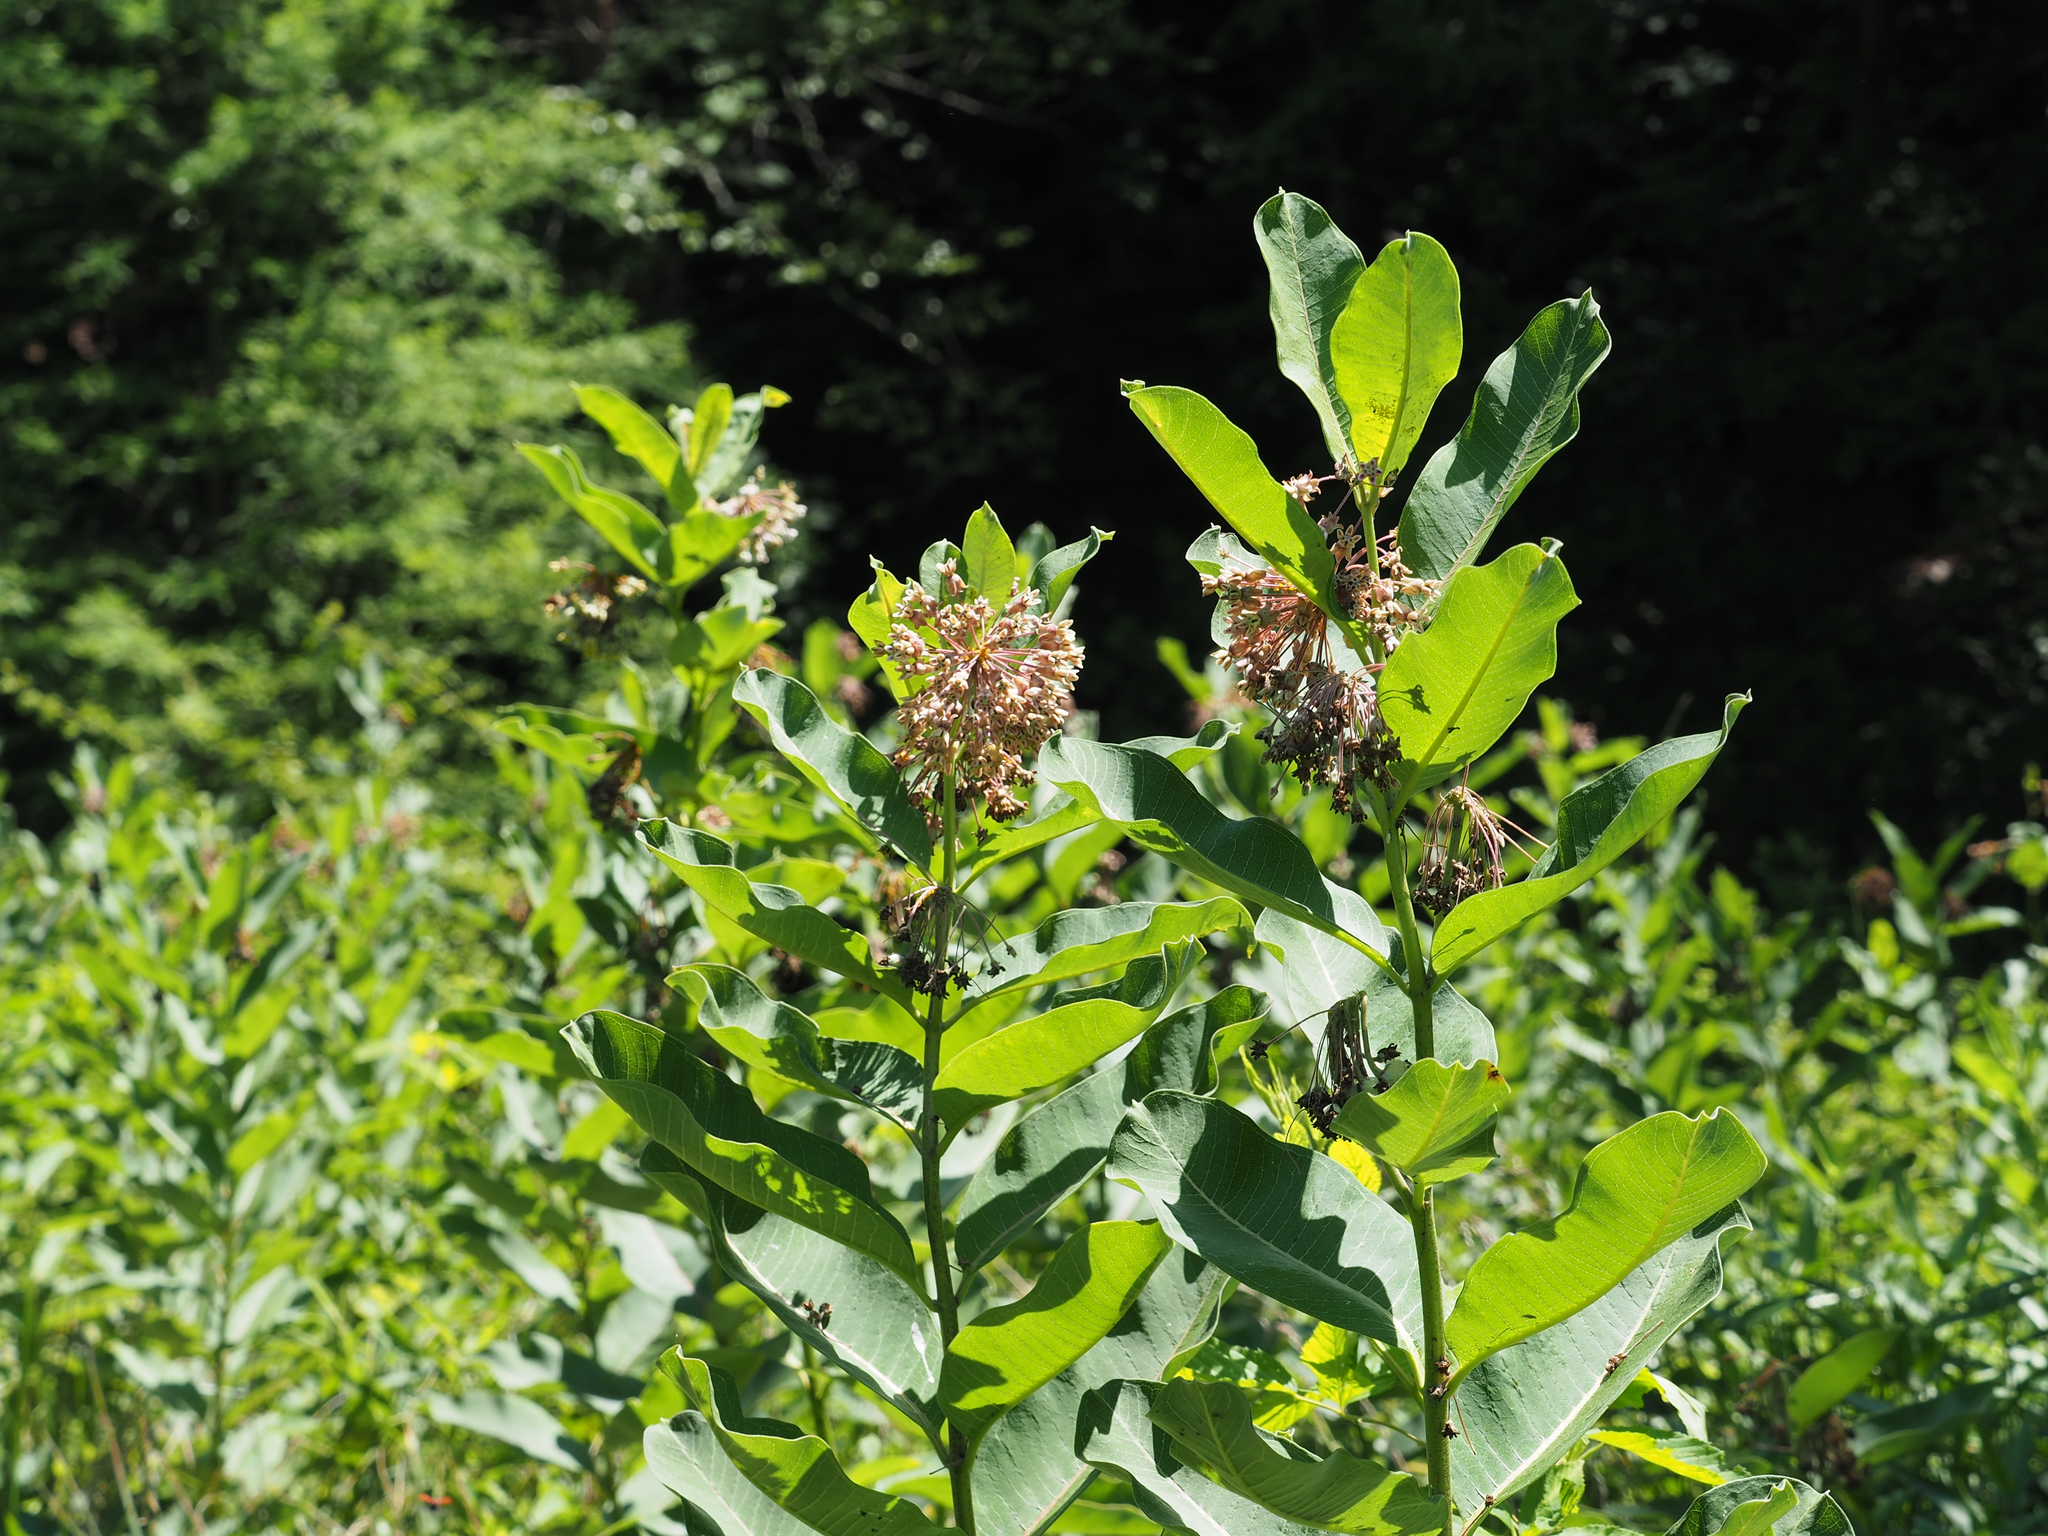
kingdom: Plantae
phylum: Tracheophyta
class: Magnoliopsida
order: Gentianales
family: Apocynaceae
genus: Asclepias
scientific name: Asclepias syriaca
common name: Common milkweed
